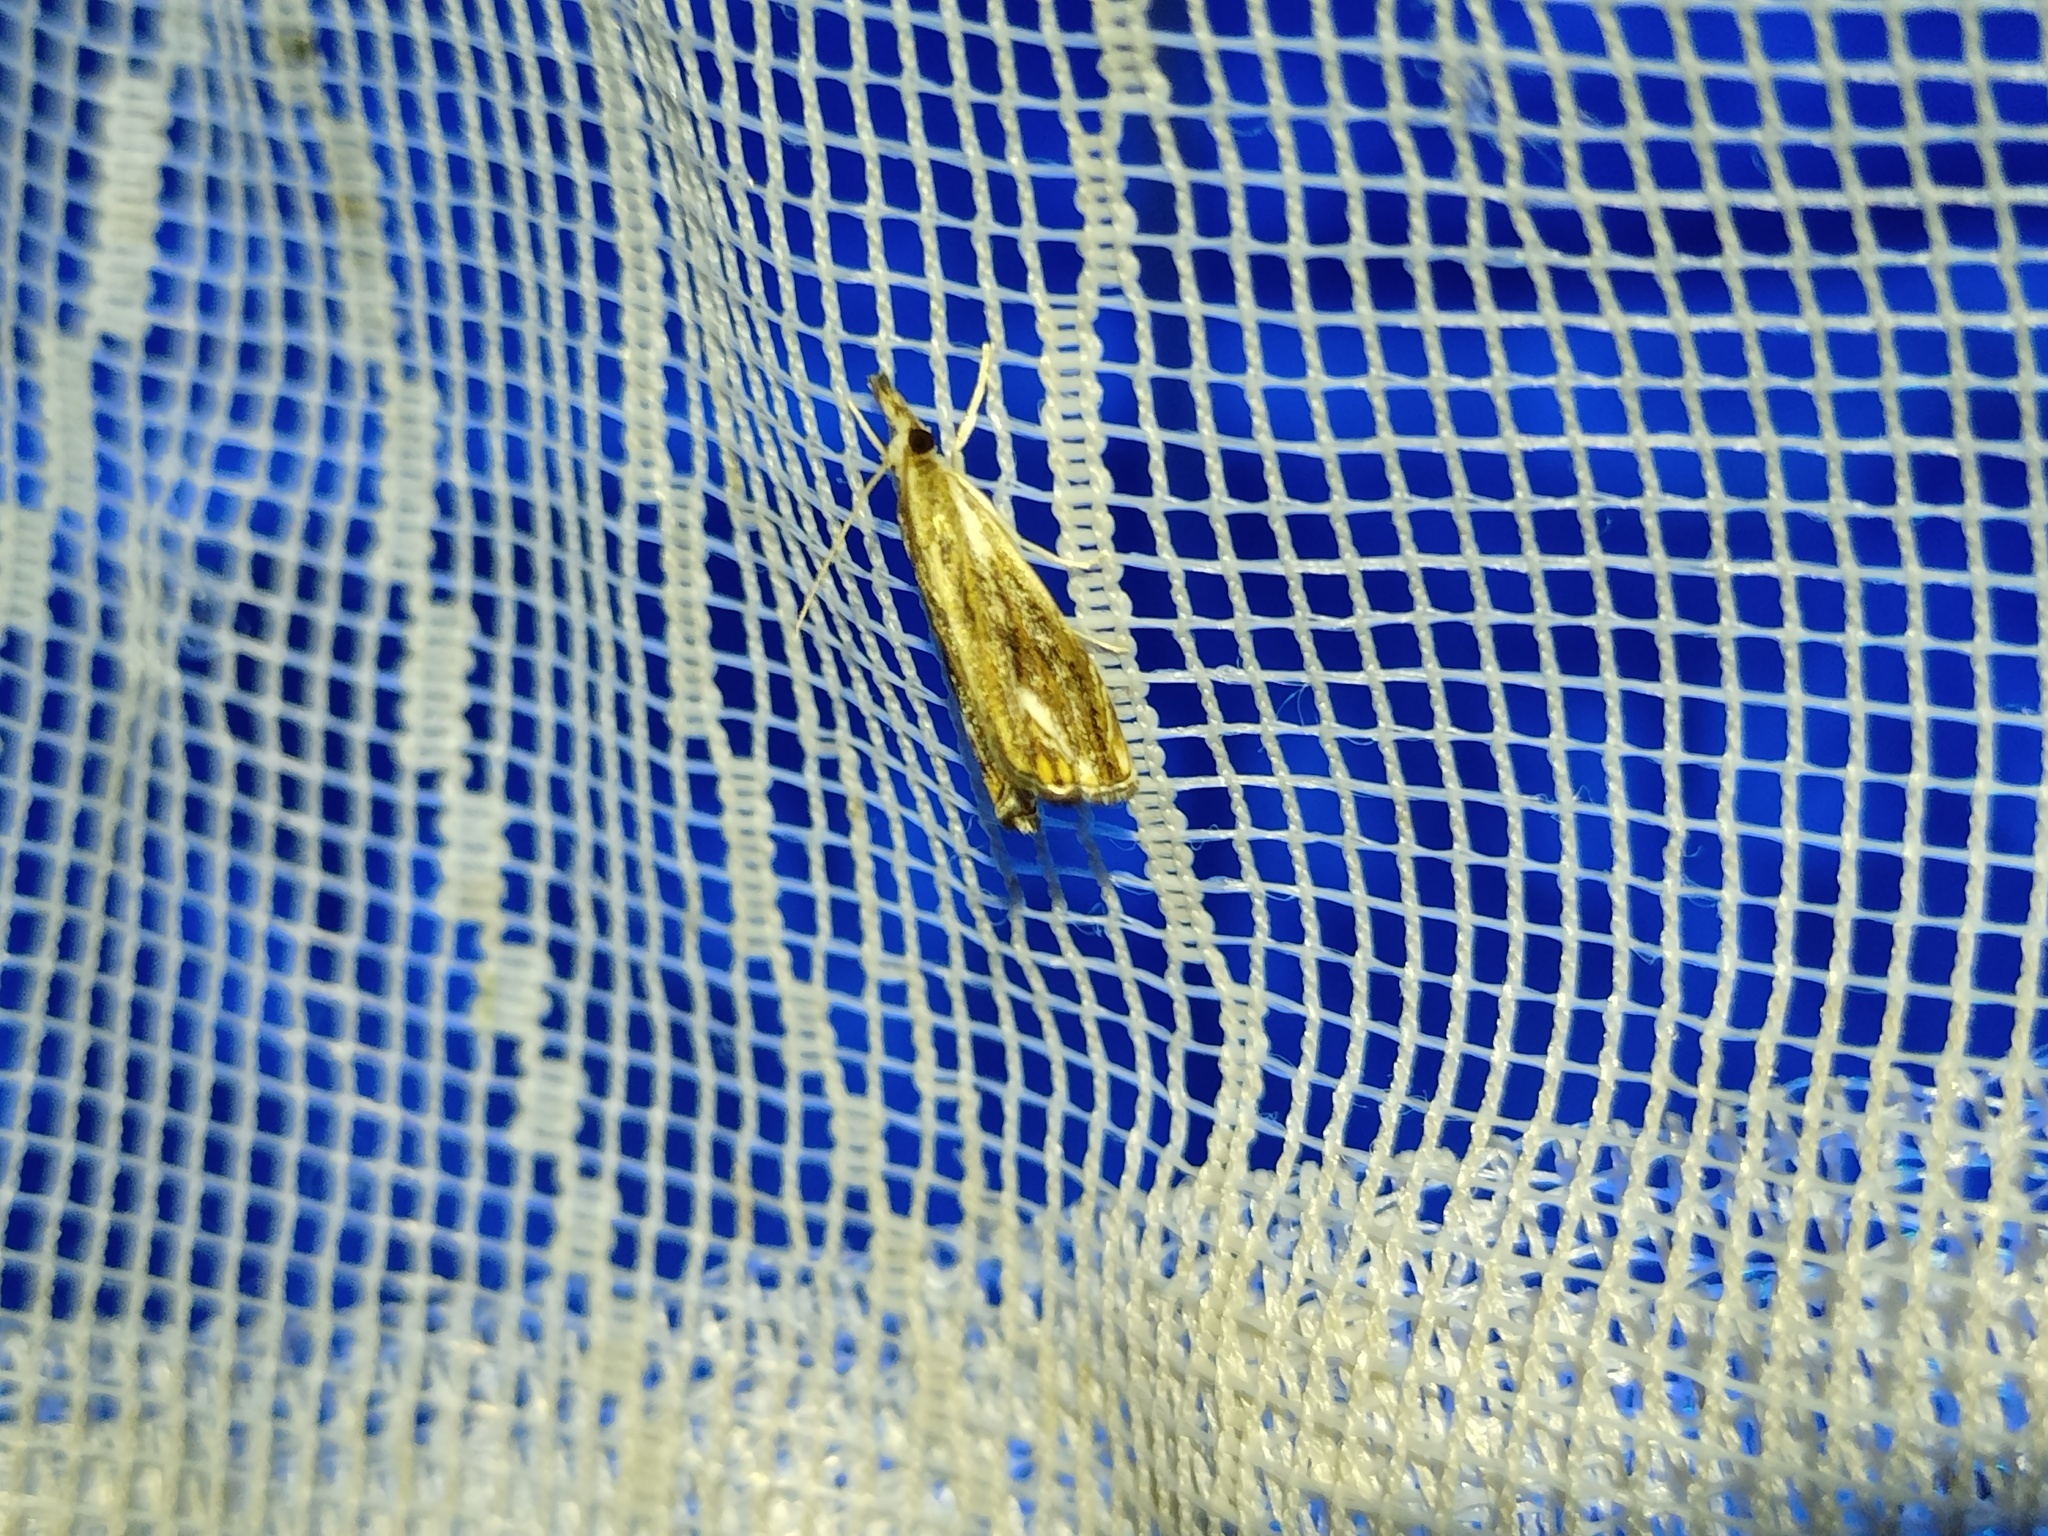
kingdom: Animalia
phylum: Arthropoda
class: Insecta
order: Lepidoptera
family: Crambidae
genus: Catoptria
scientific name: Catoptria verellus
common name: Marbled grass-veneer
